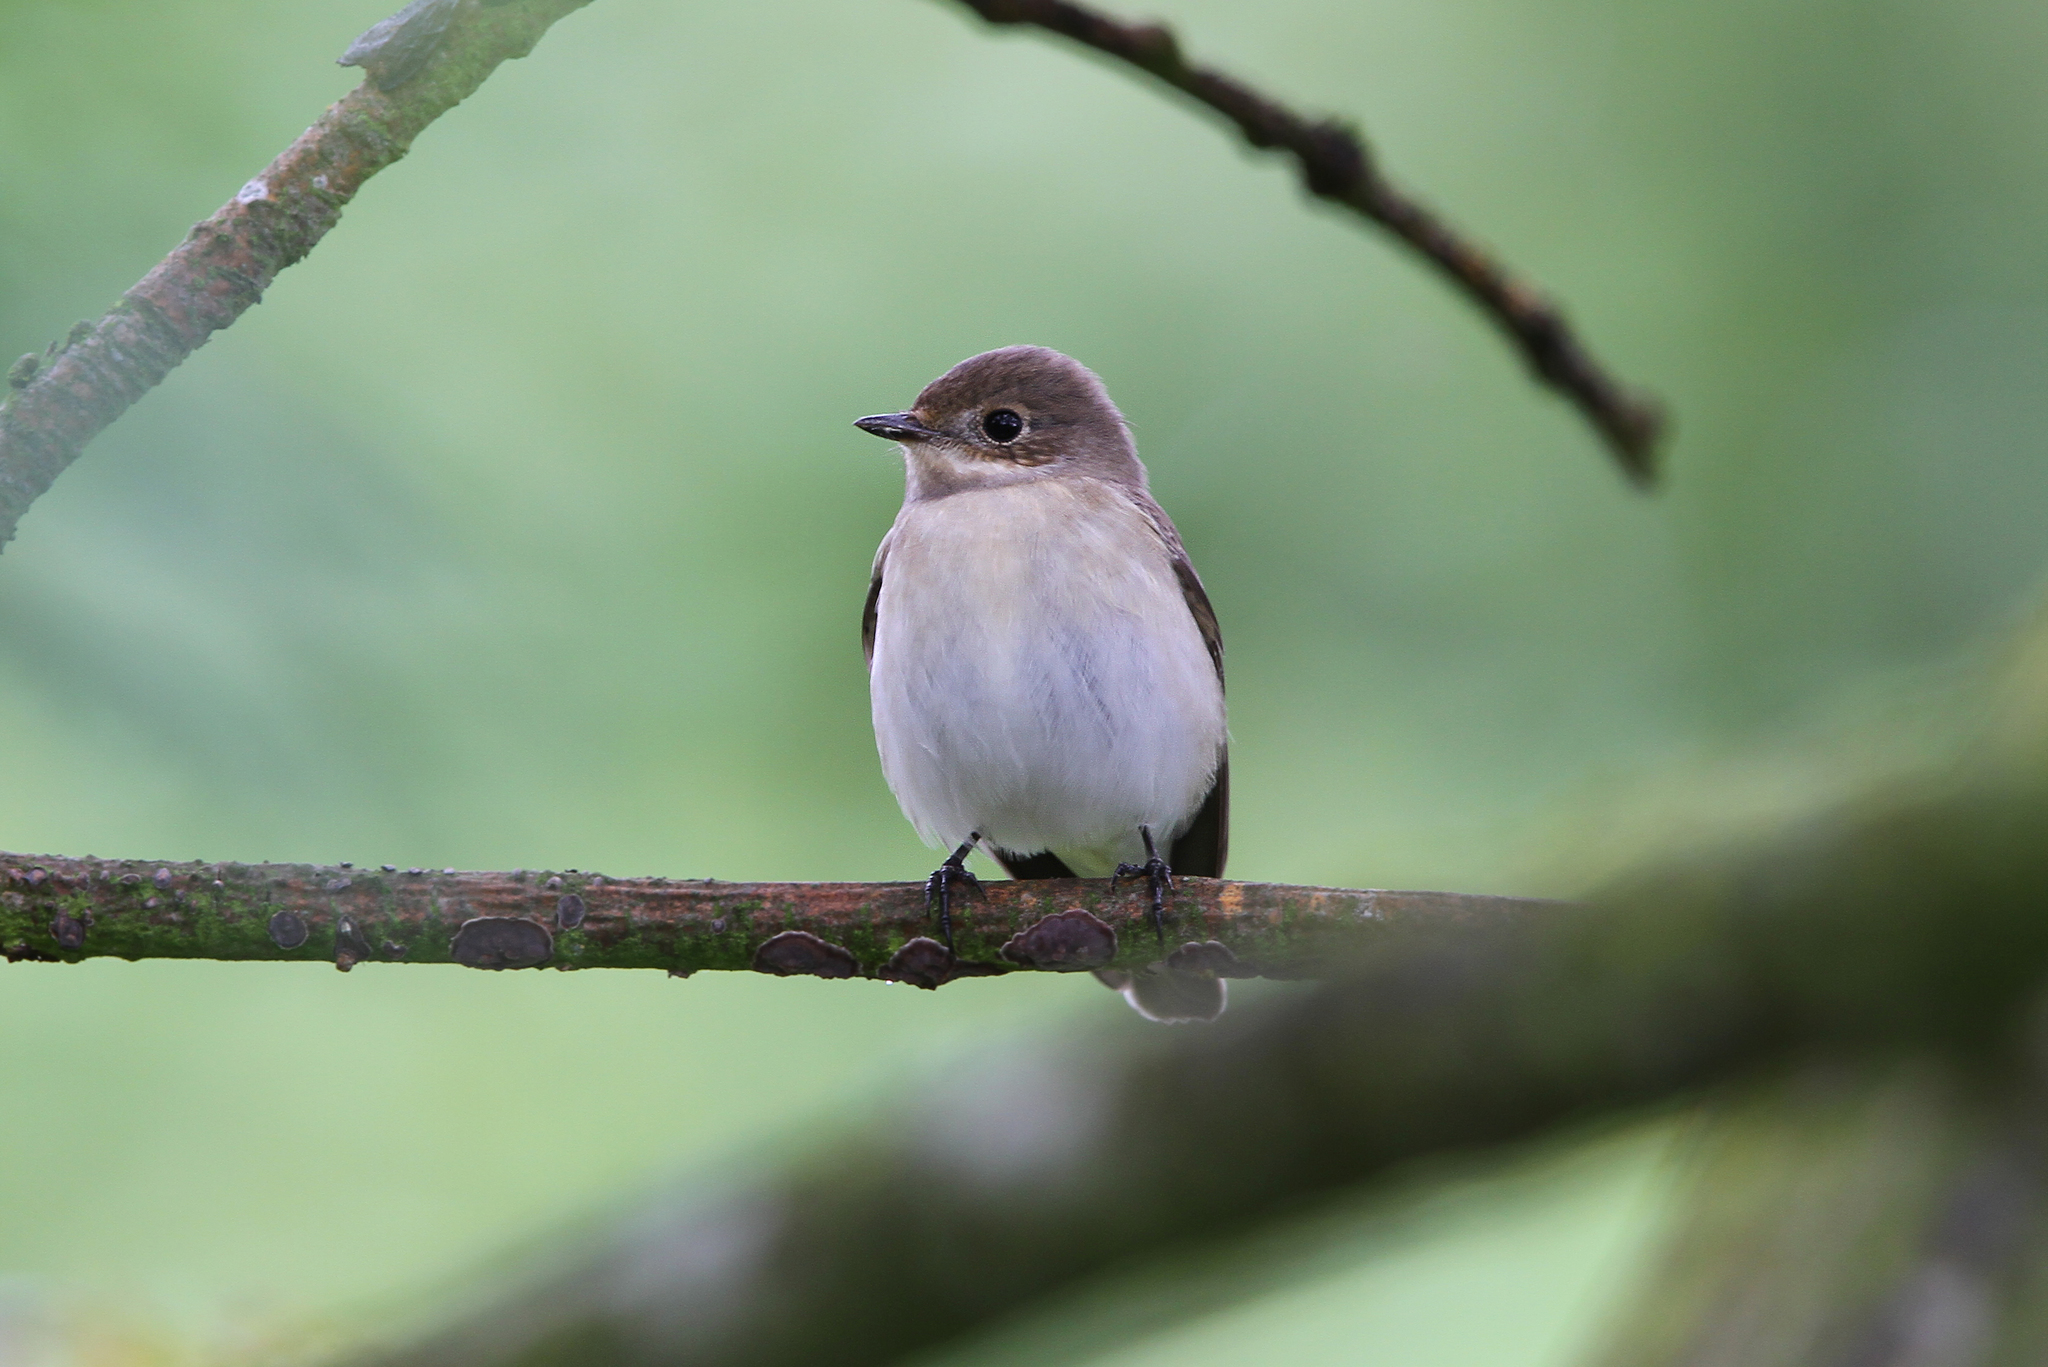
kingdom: Animalia
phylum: Chordata
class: Aves
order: Passeriformes
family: Muscicapidae
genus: Ficedula
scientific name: Ficedula hypoleuca
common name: European pied flycatcher
